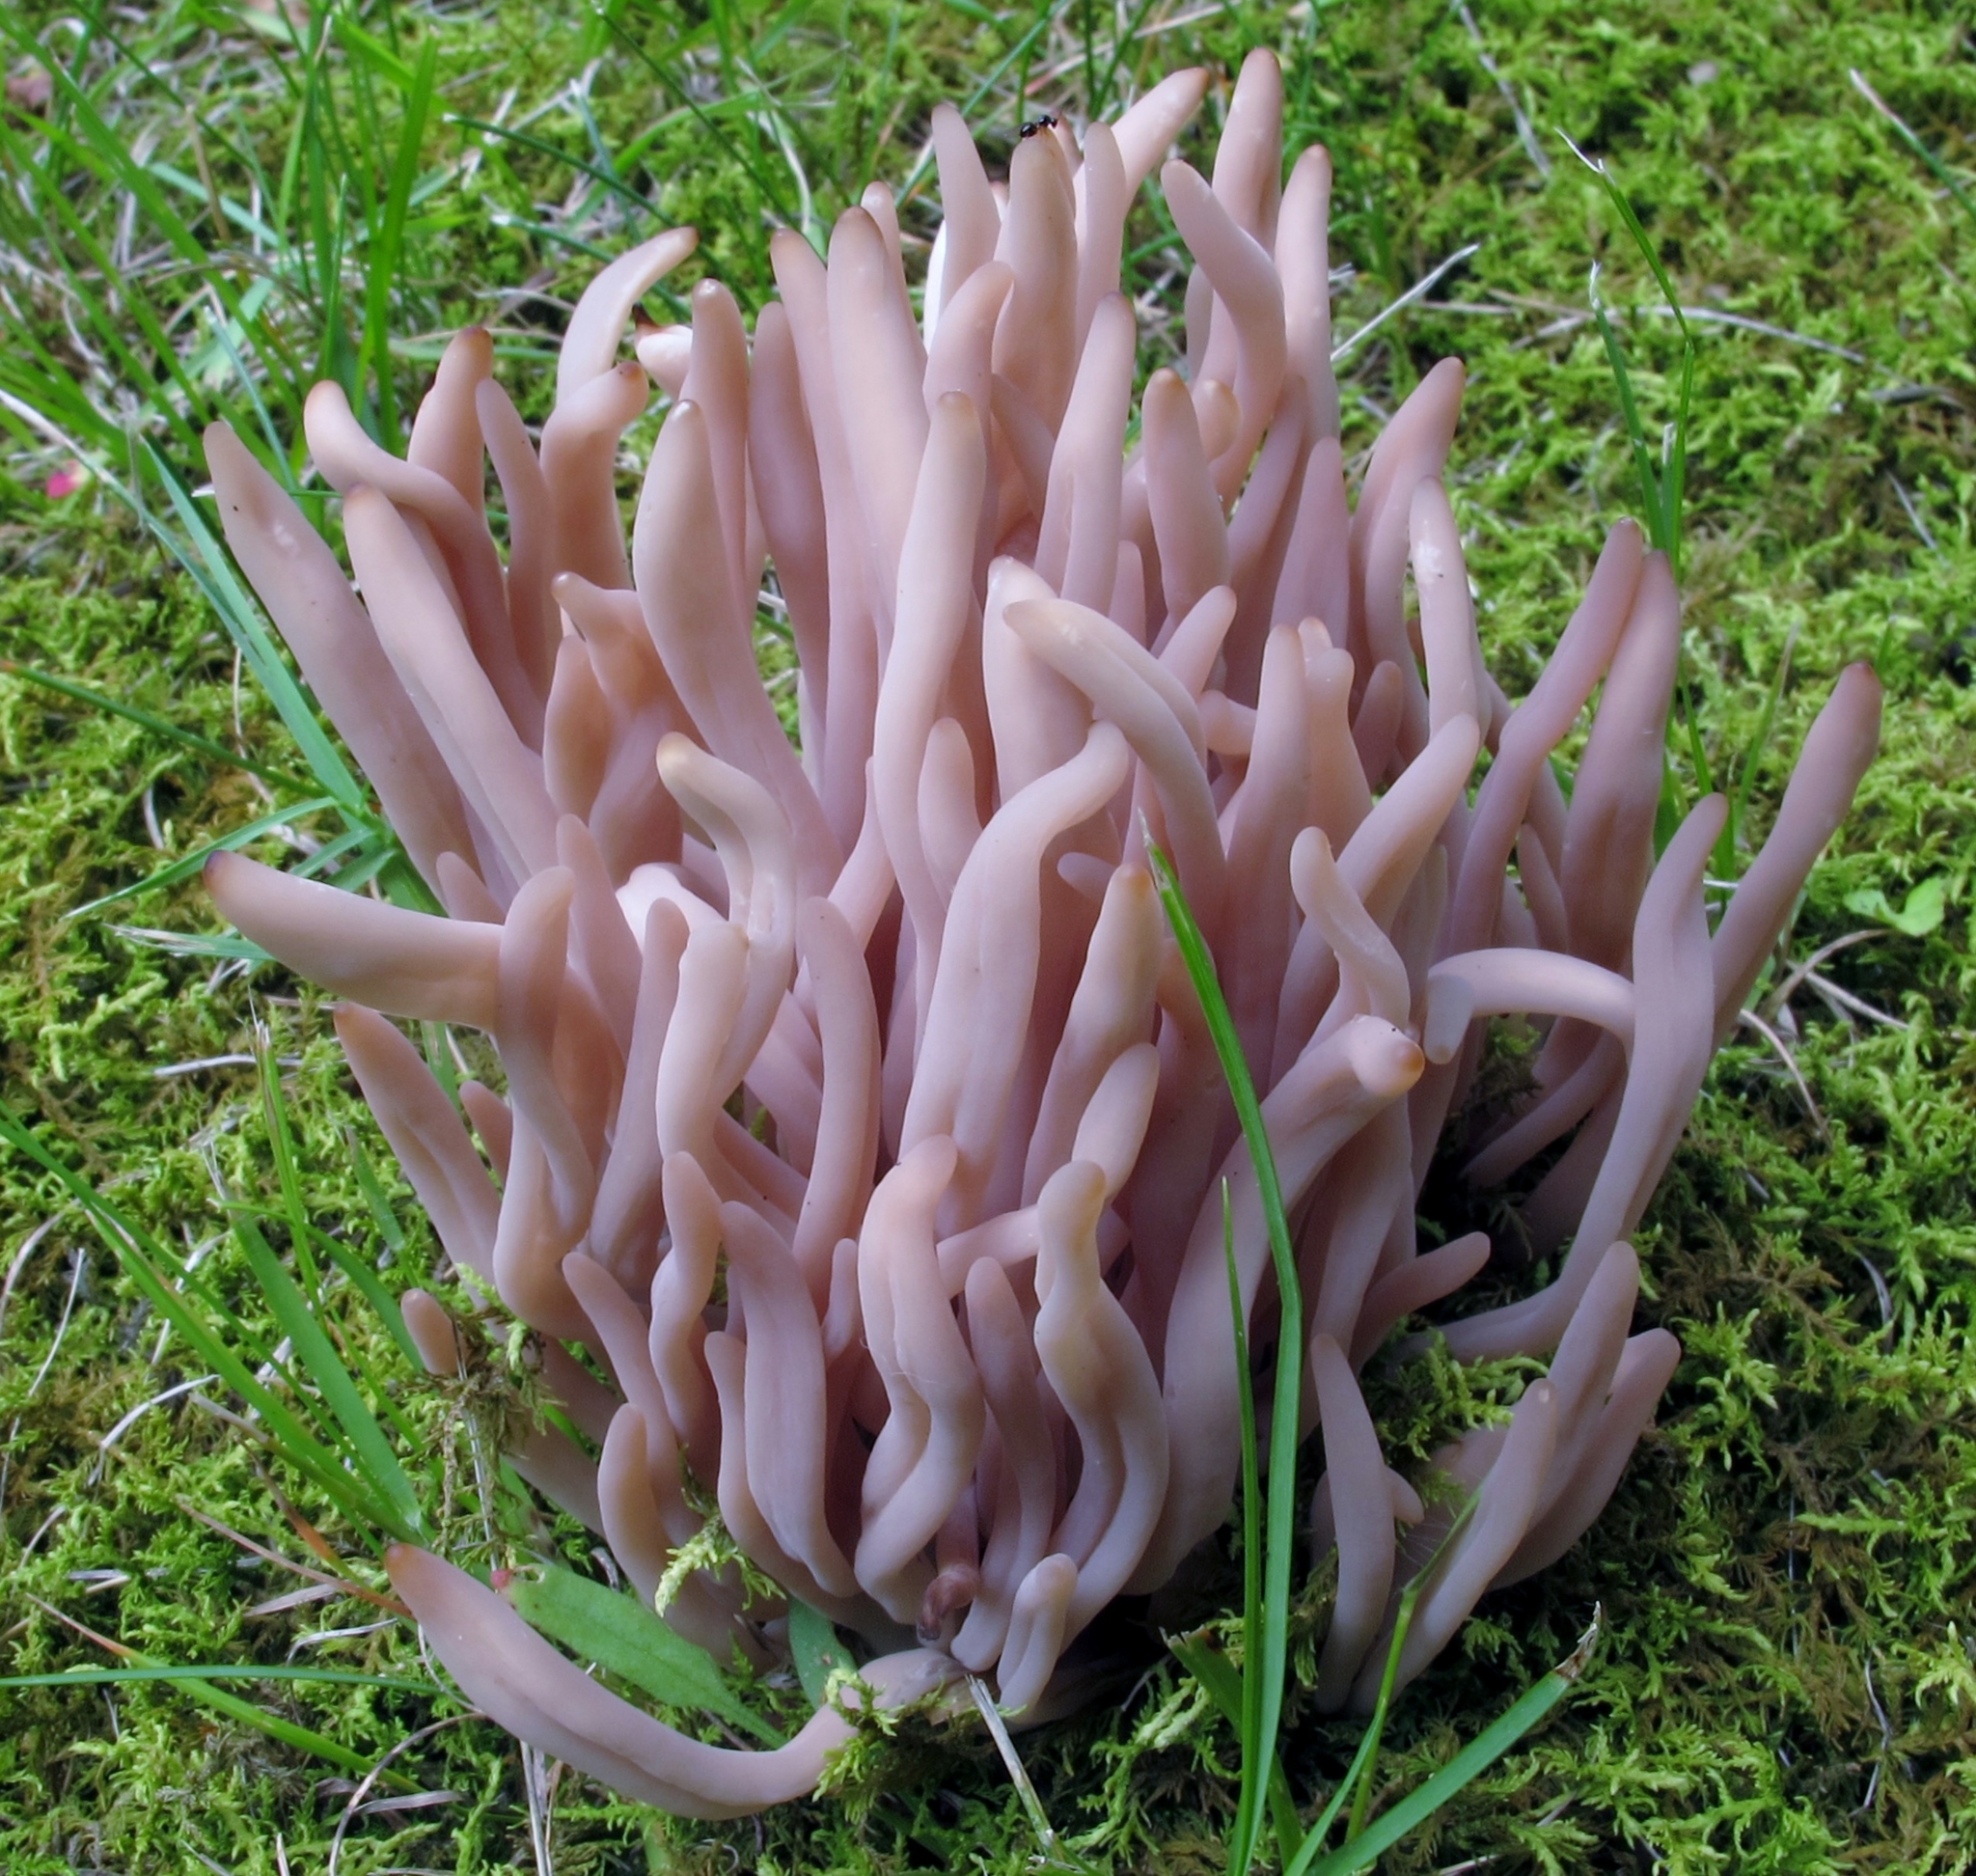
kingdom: Fungi
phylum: Basidiomycota
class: Agaricomycetes
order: Agaricales
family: Clavariaceae
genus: Clavaria
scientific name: Clavaria rubicundula
